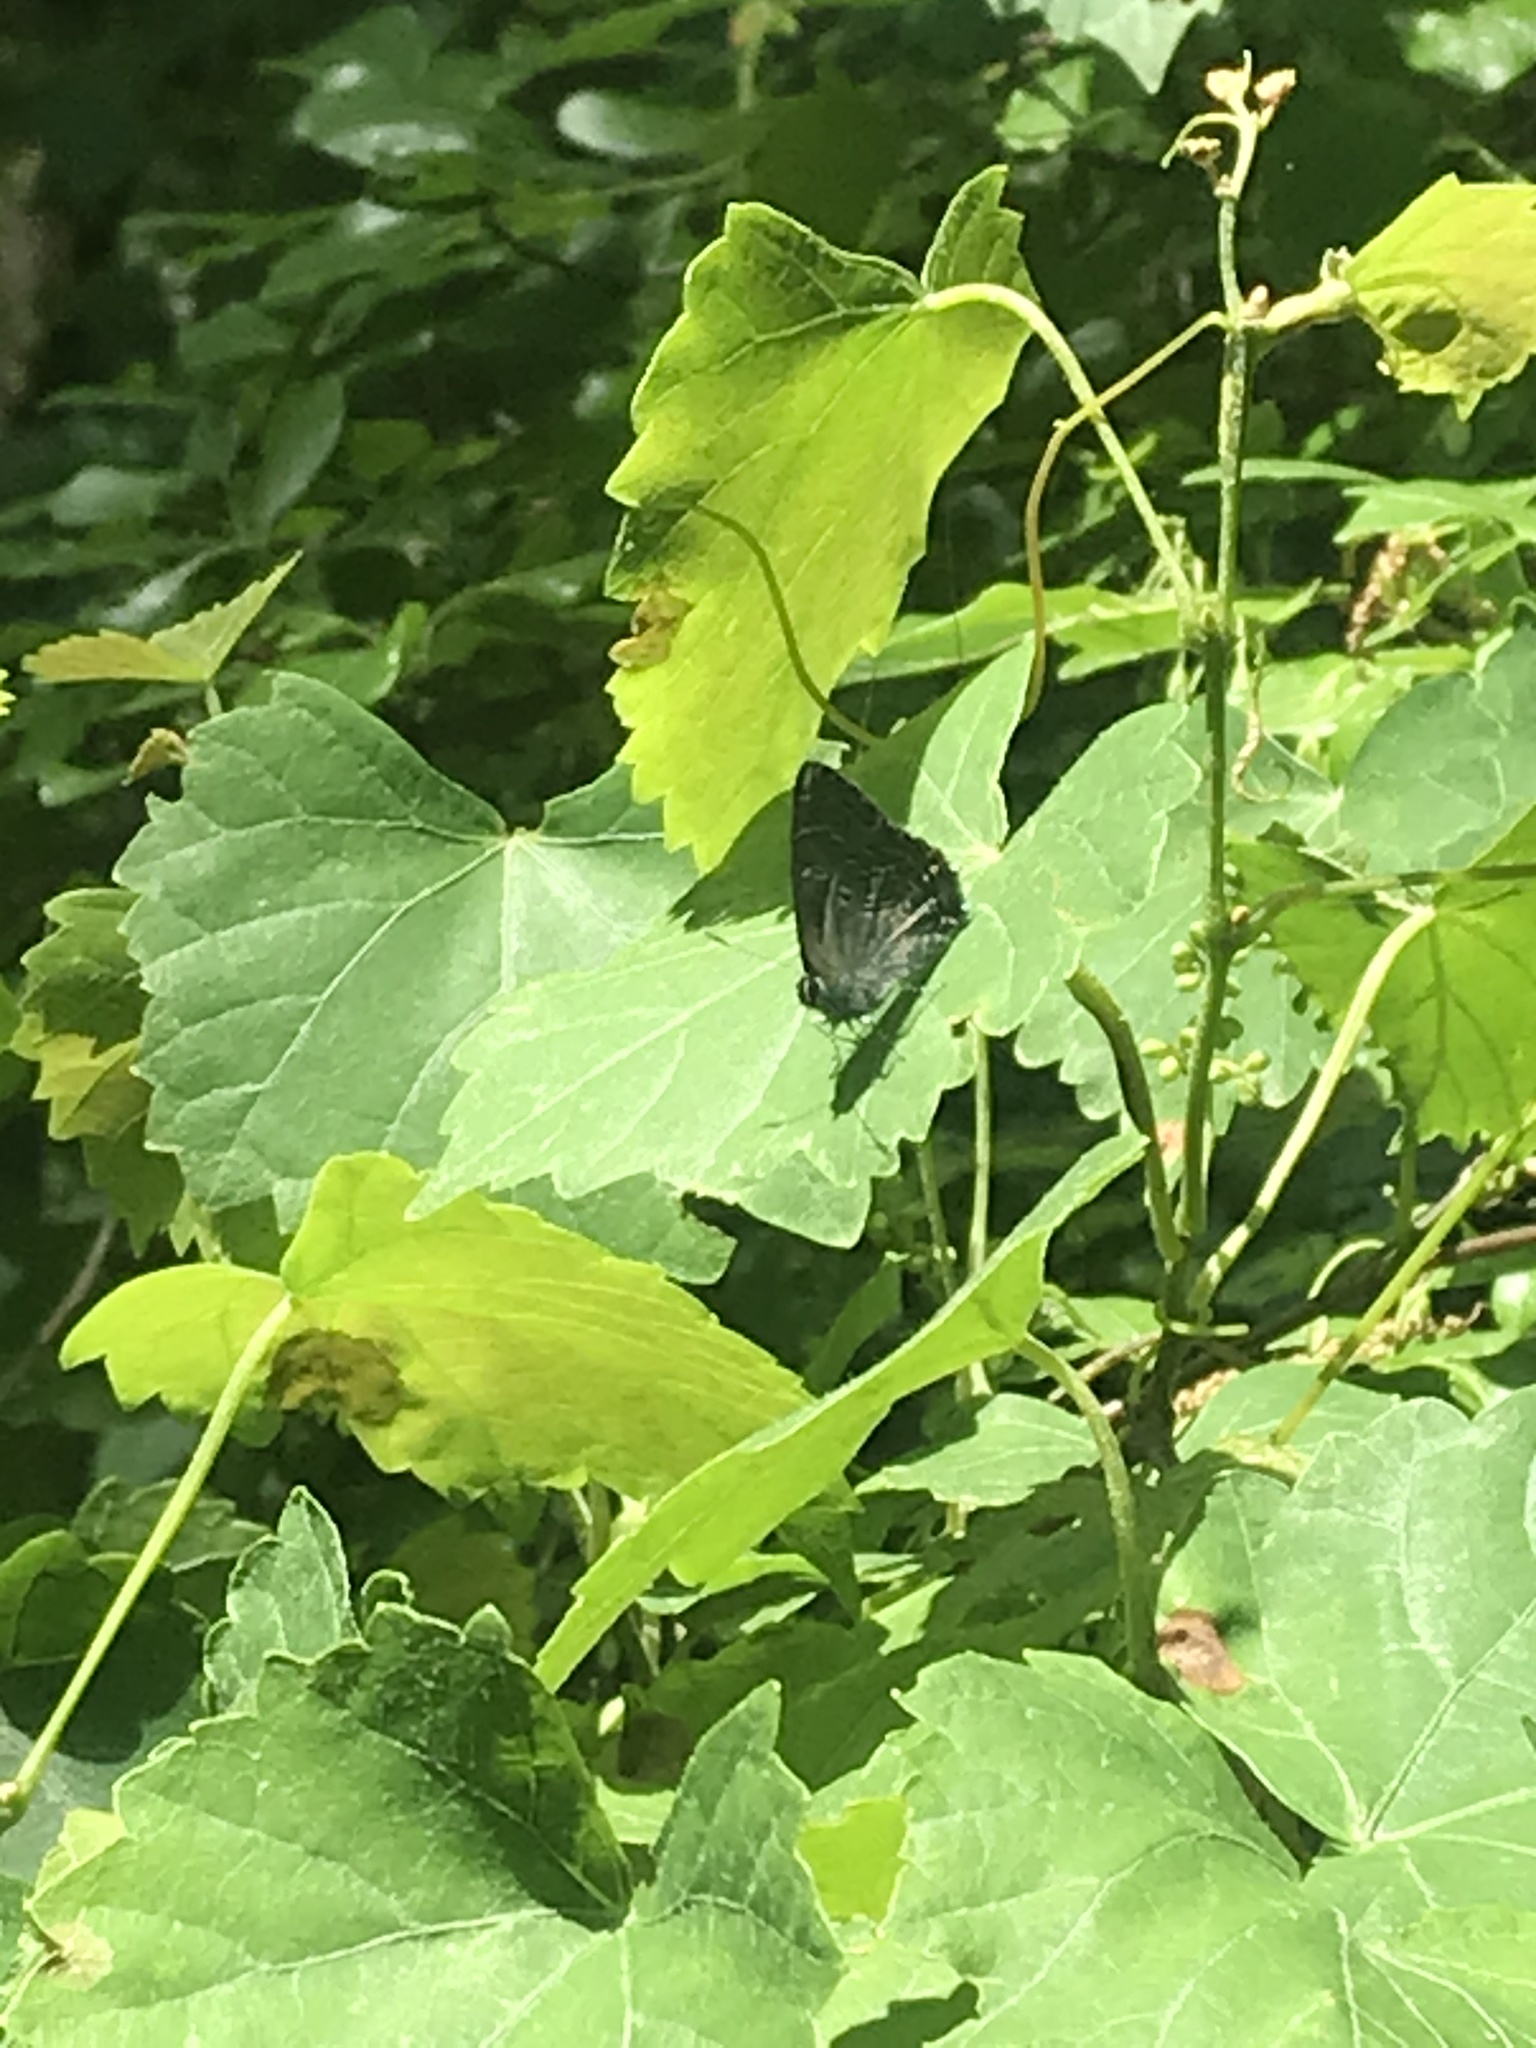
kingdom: Animalia
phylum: Arthropoda
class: Insecta
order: Lepidoptera
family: Lycaenidae
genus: Satyrium
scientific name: Satyrium calanus
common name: Banded hairstreak
